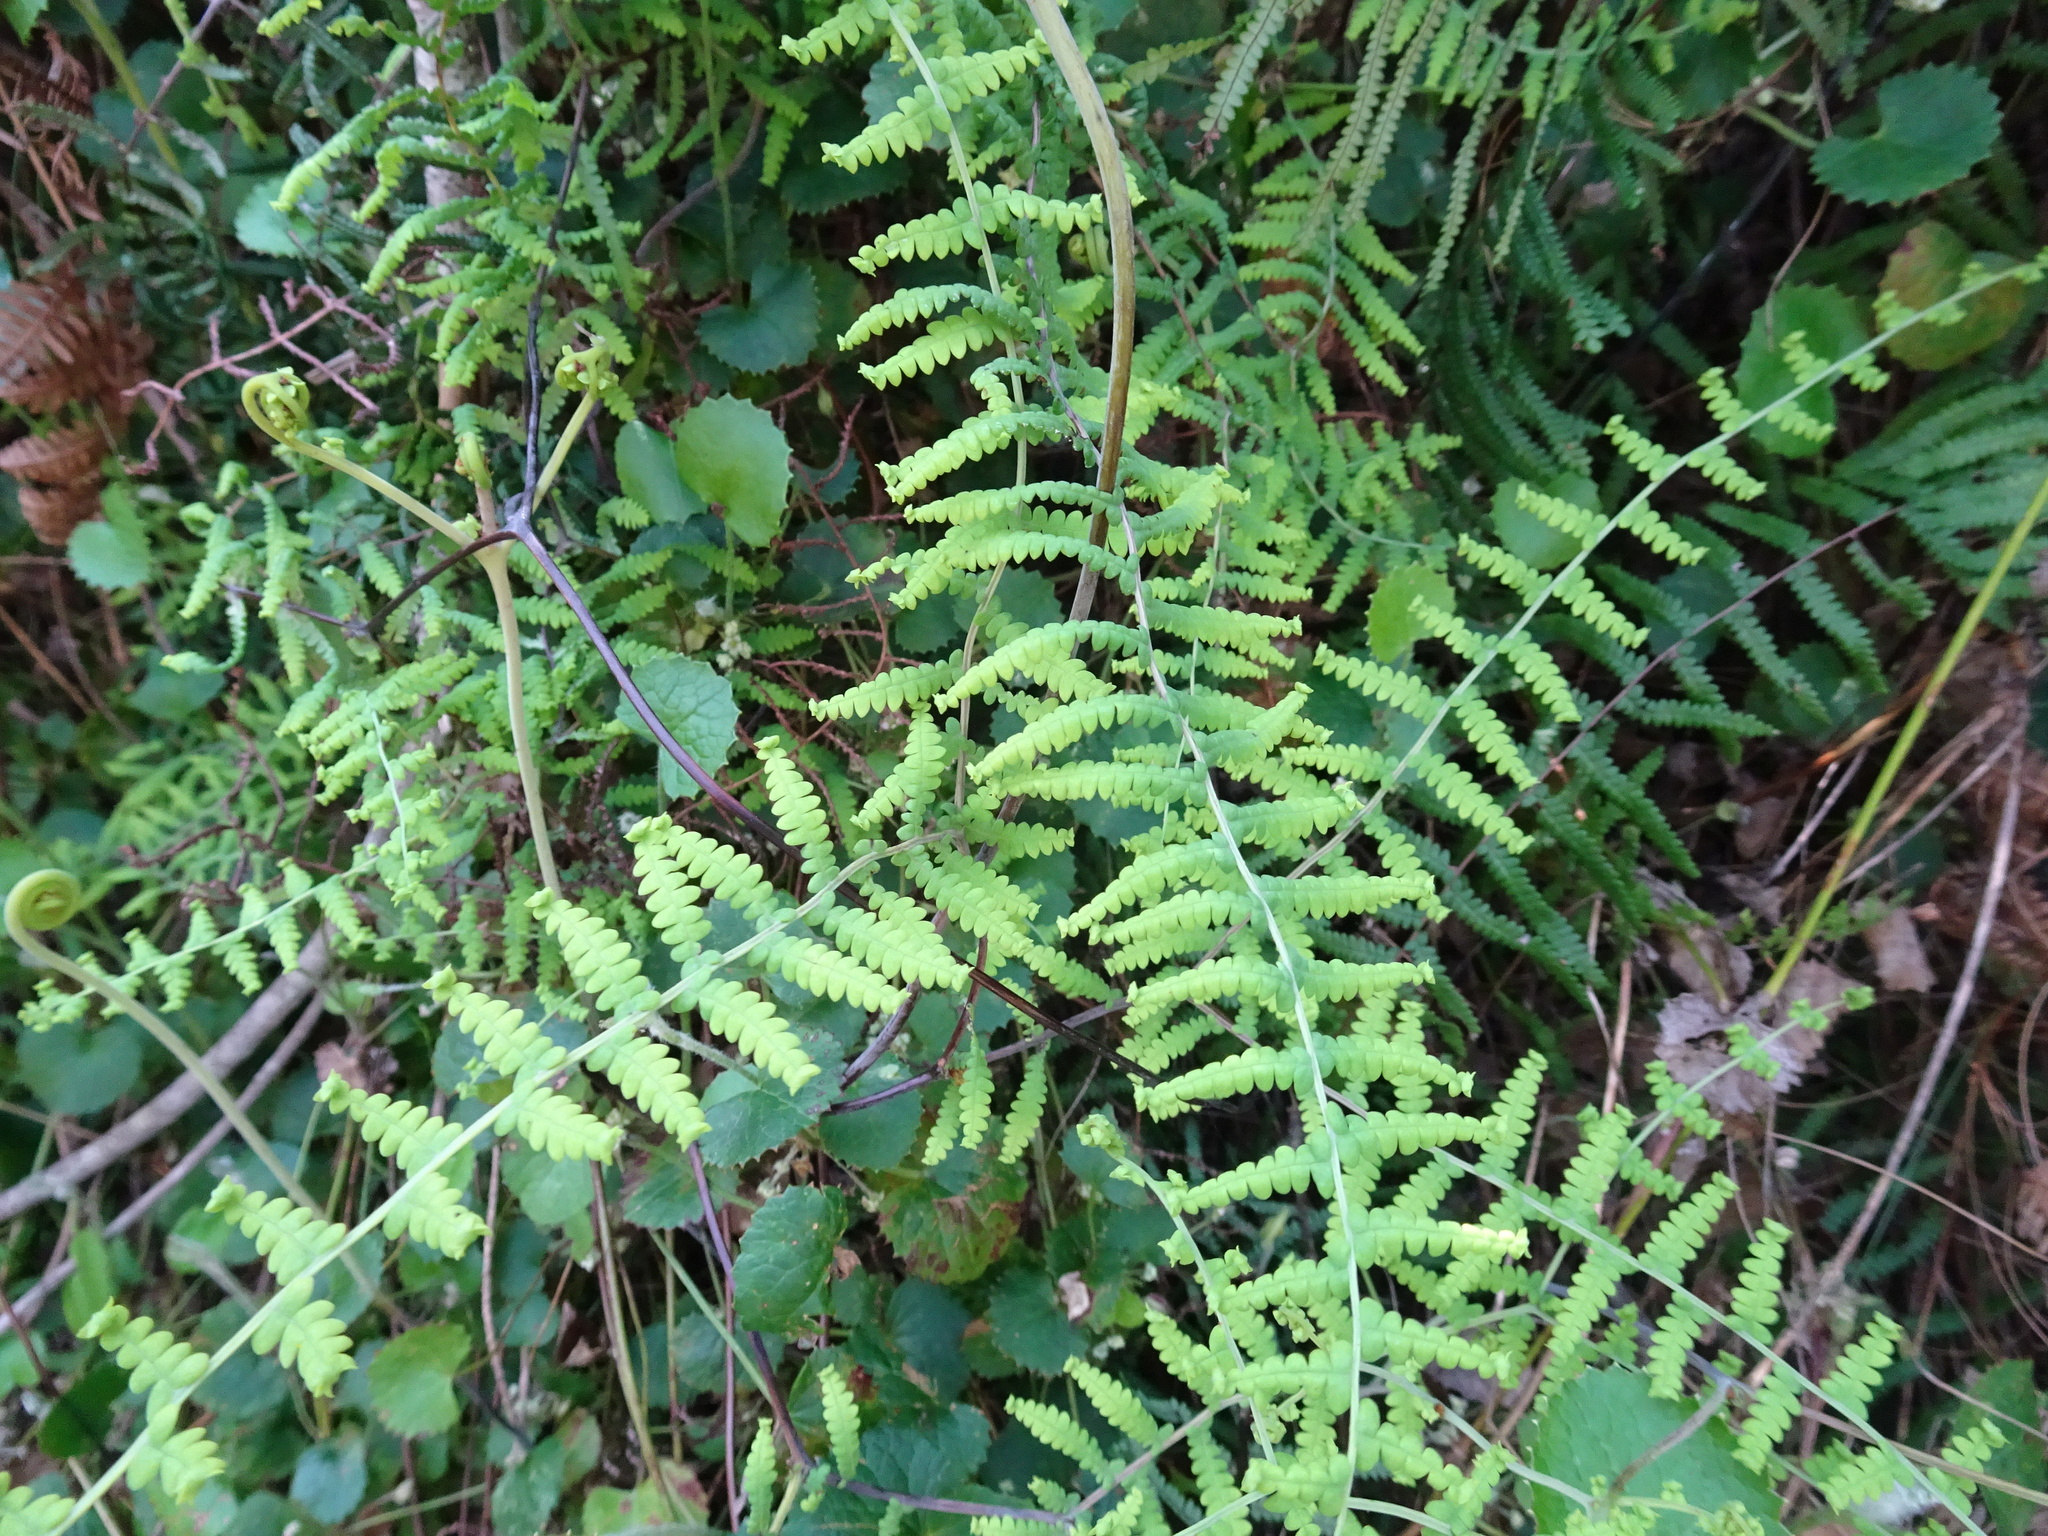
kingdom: Plantae
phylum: Tracheophyta
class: Polypodiopsida
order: Gleicheniales
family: Gleicheniaceae
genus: Gleichenia
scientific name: Gleichenia polypodioides
